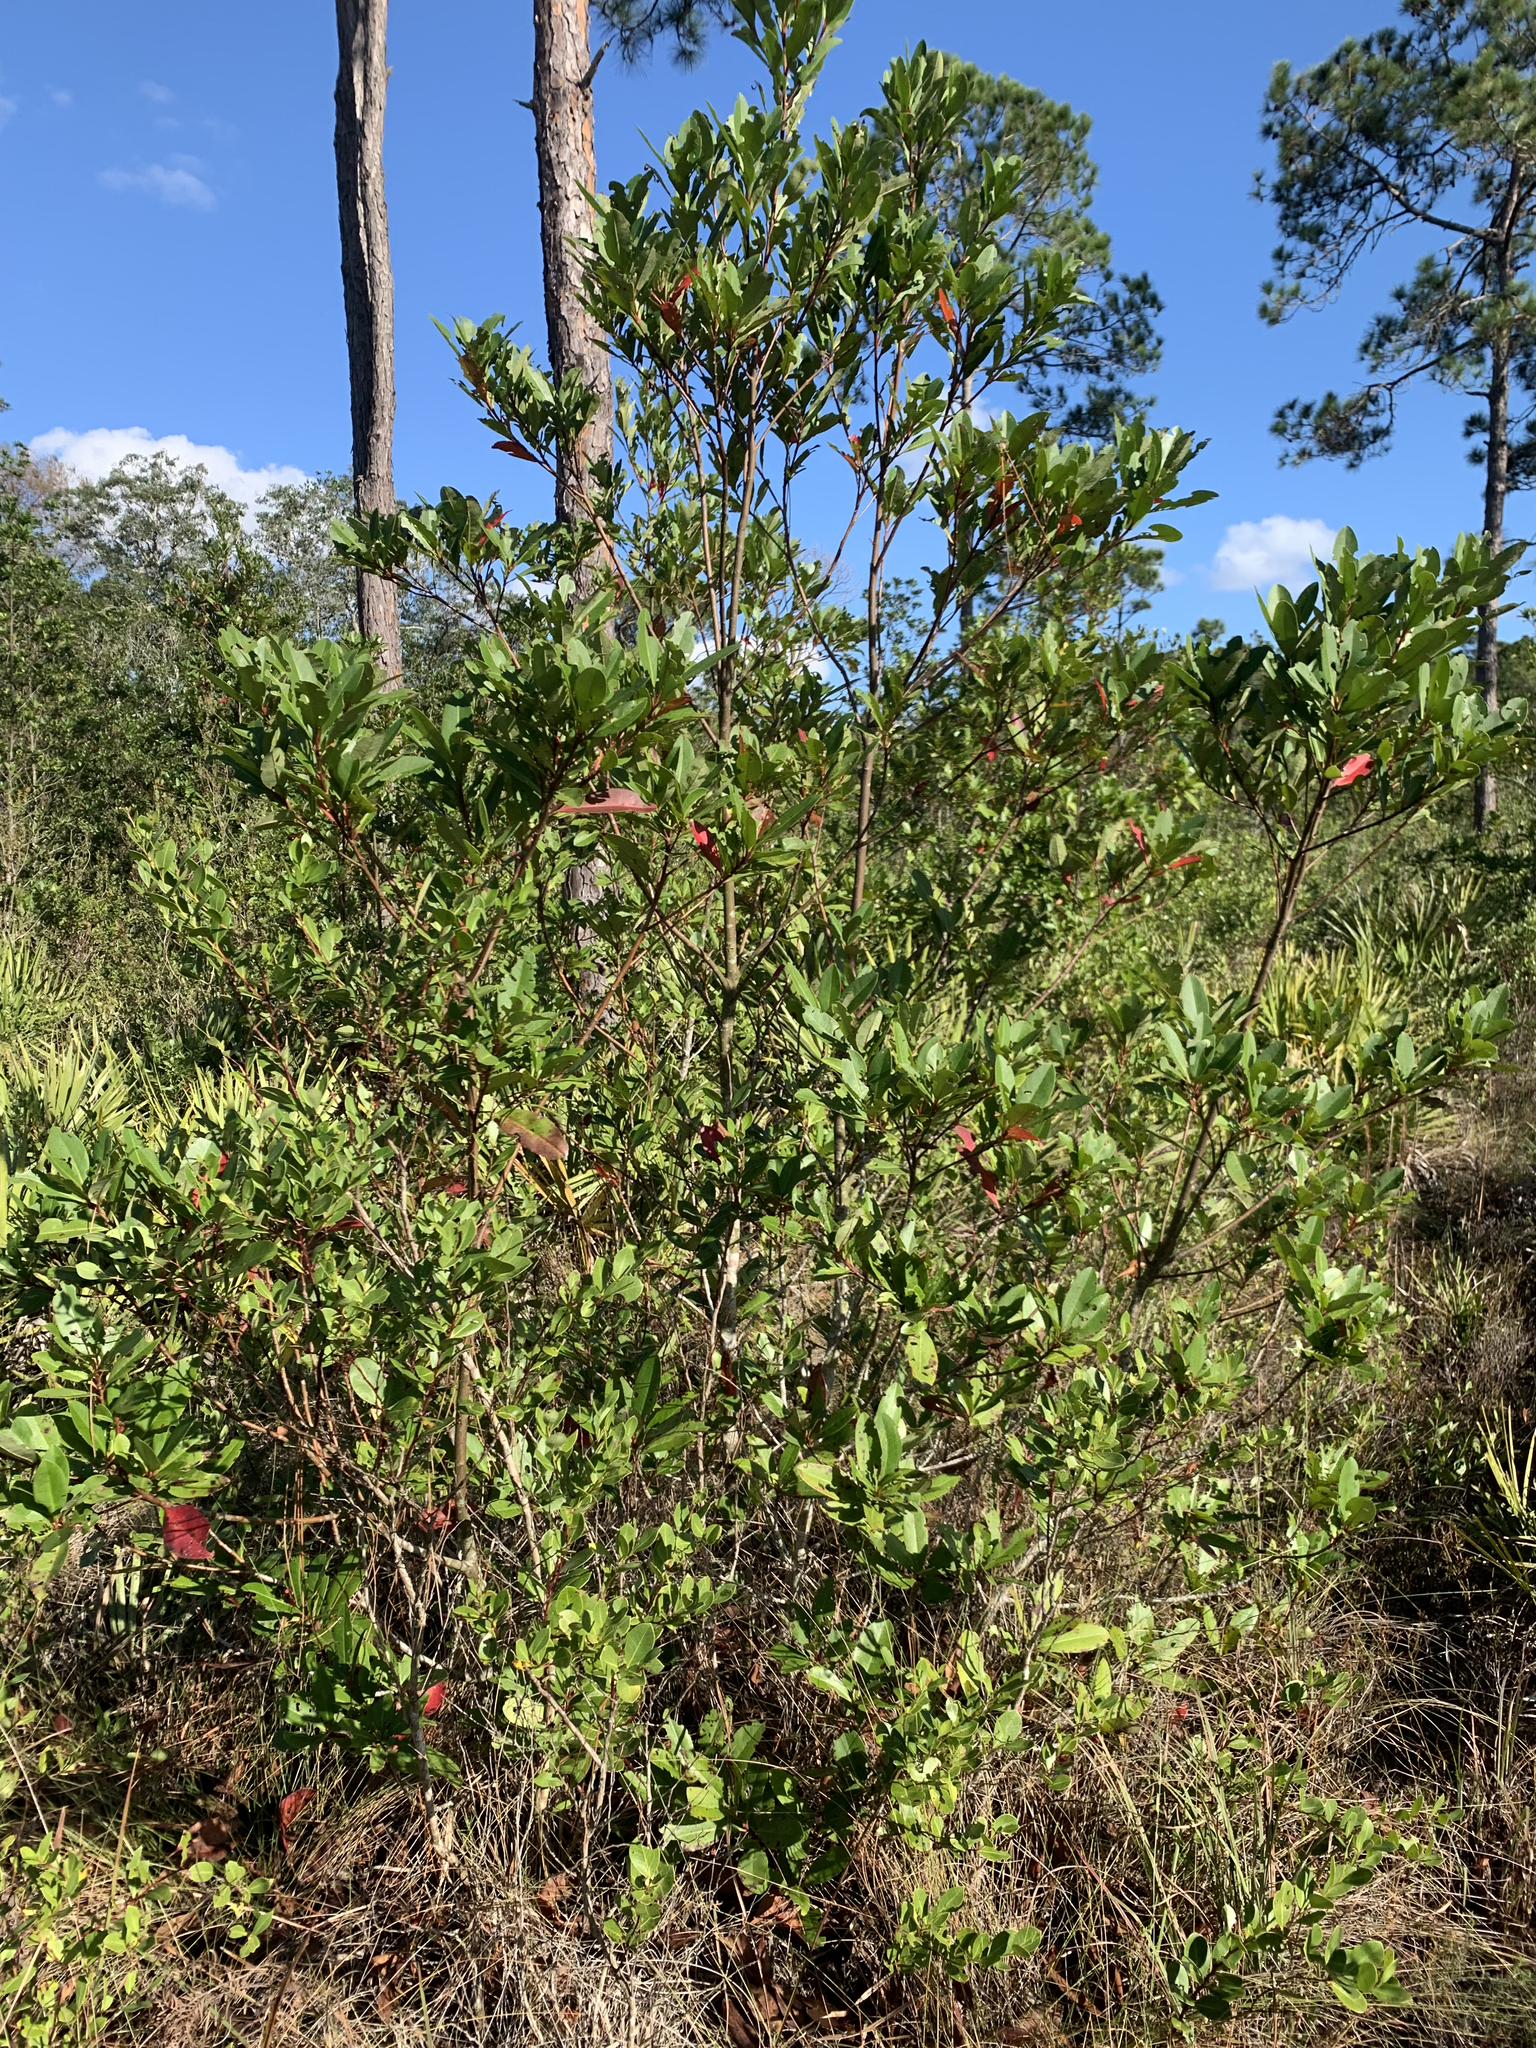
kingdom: Plantae
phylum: Tracheophyta
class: Magnoliopsida
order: Ericales
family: Theaceae
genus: Gordonia
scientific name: Gordonia lasianthus
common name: Loblolly bay
